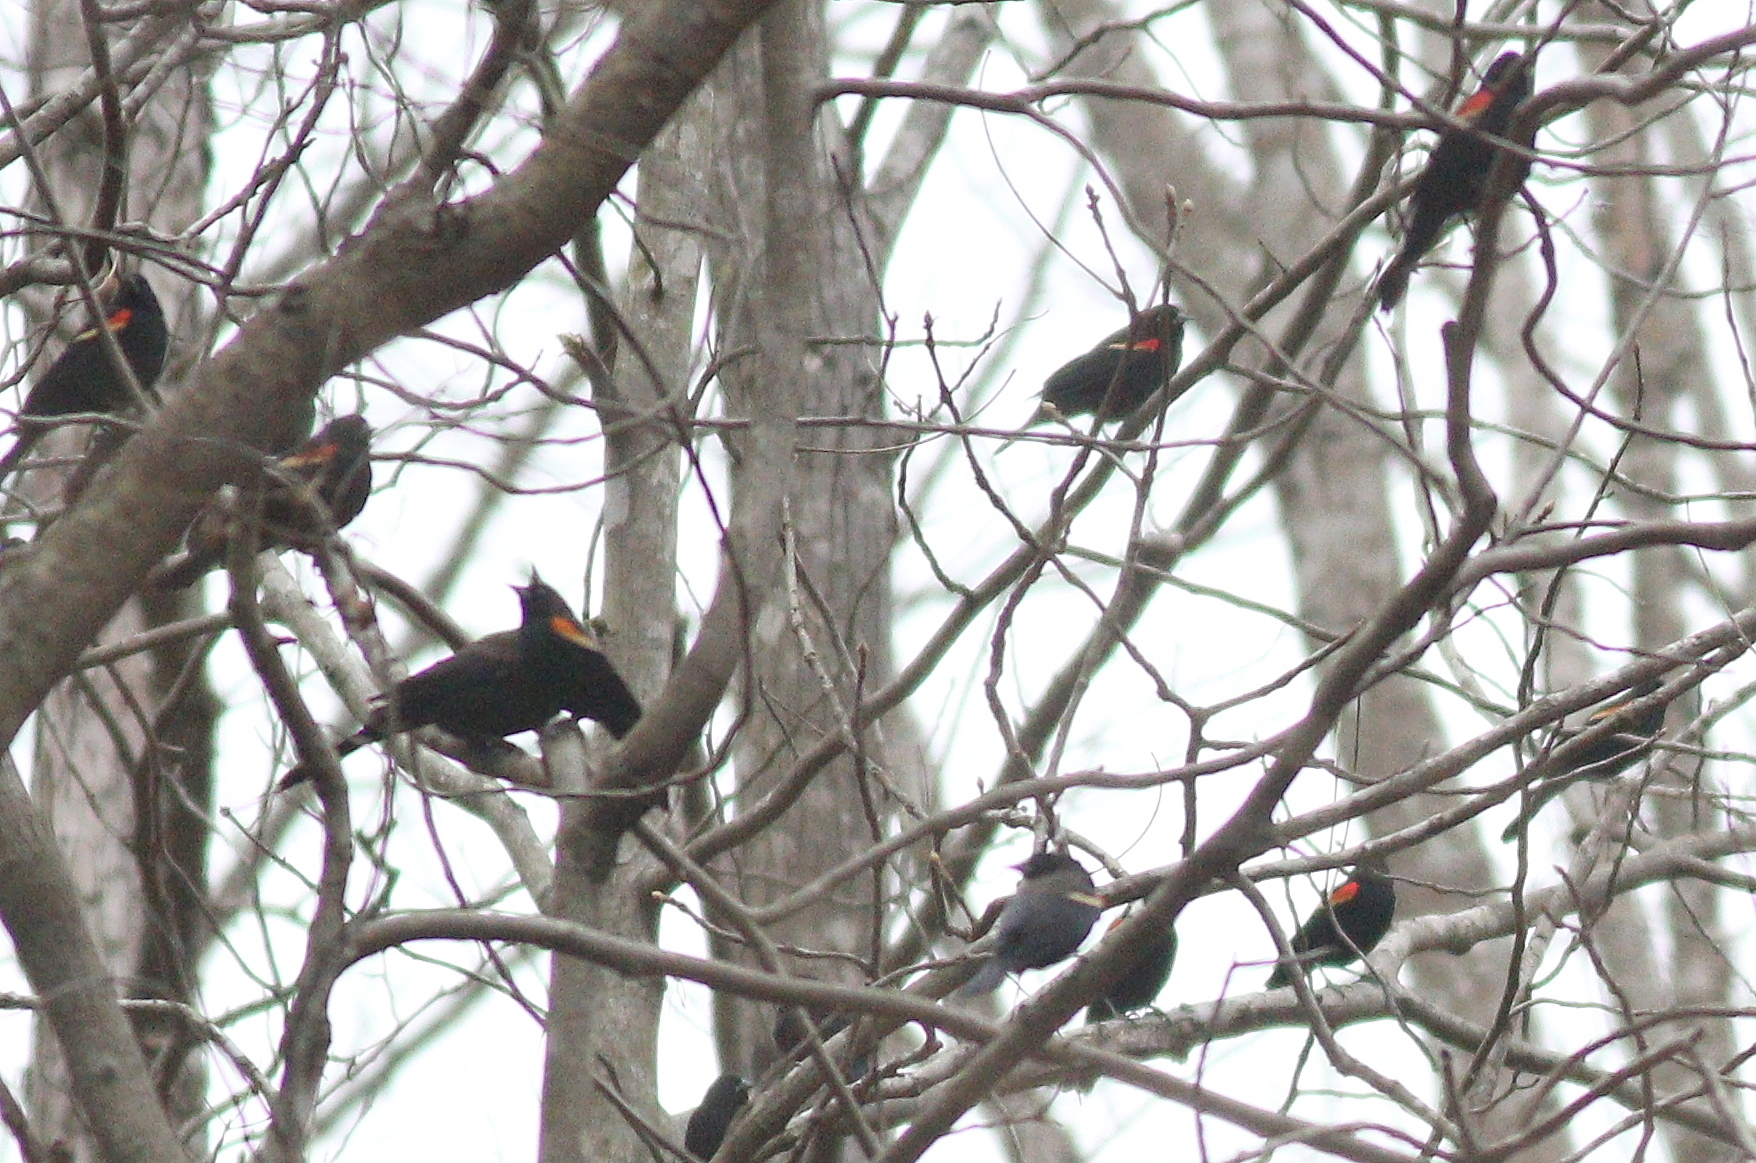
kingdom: Animalia
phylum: Chordata
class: Aves
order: Passeriformes
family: Icteridae
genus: Agelaius
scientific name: Agelaius phoeniceus
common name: Red-winged blackbird
